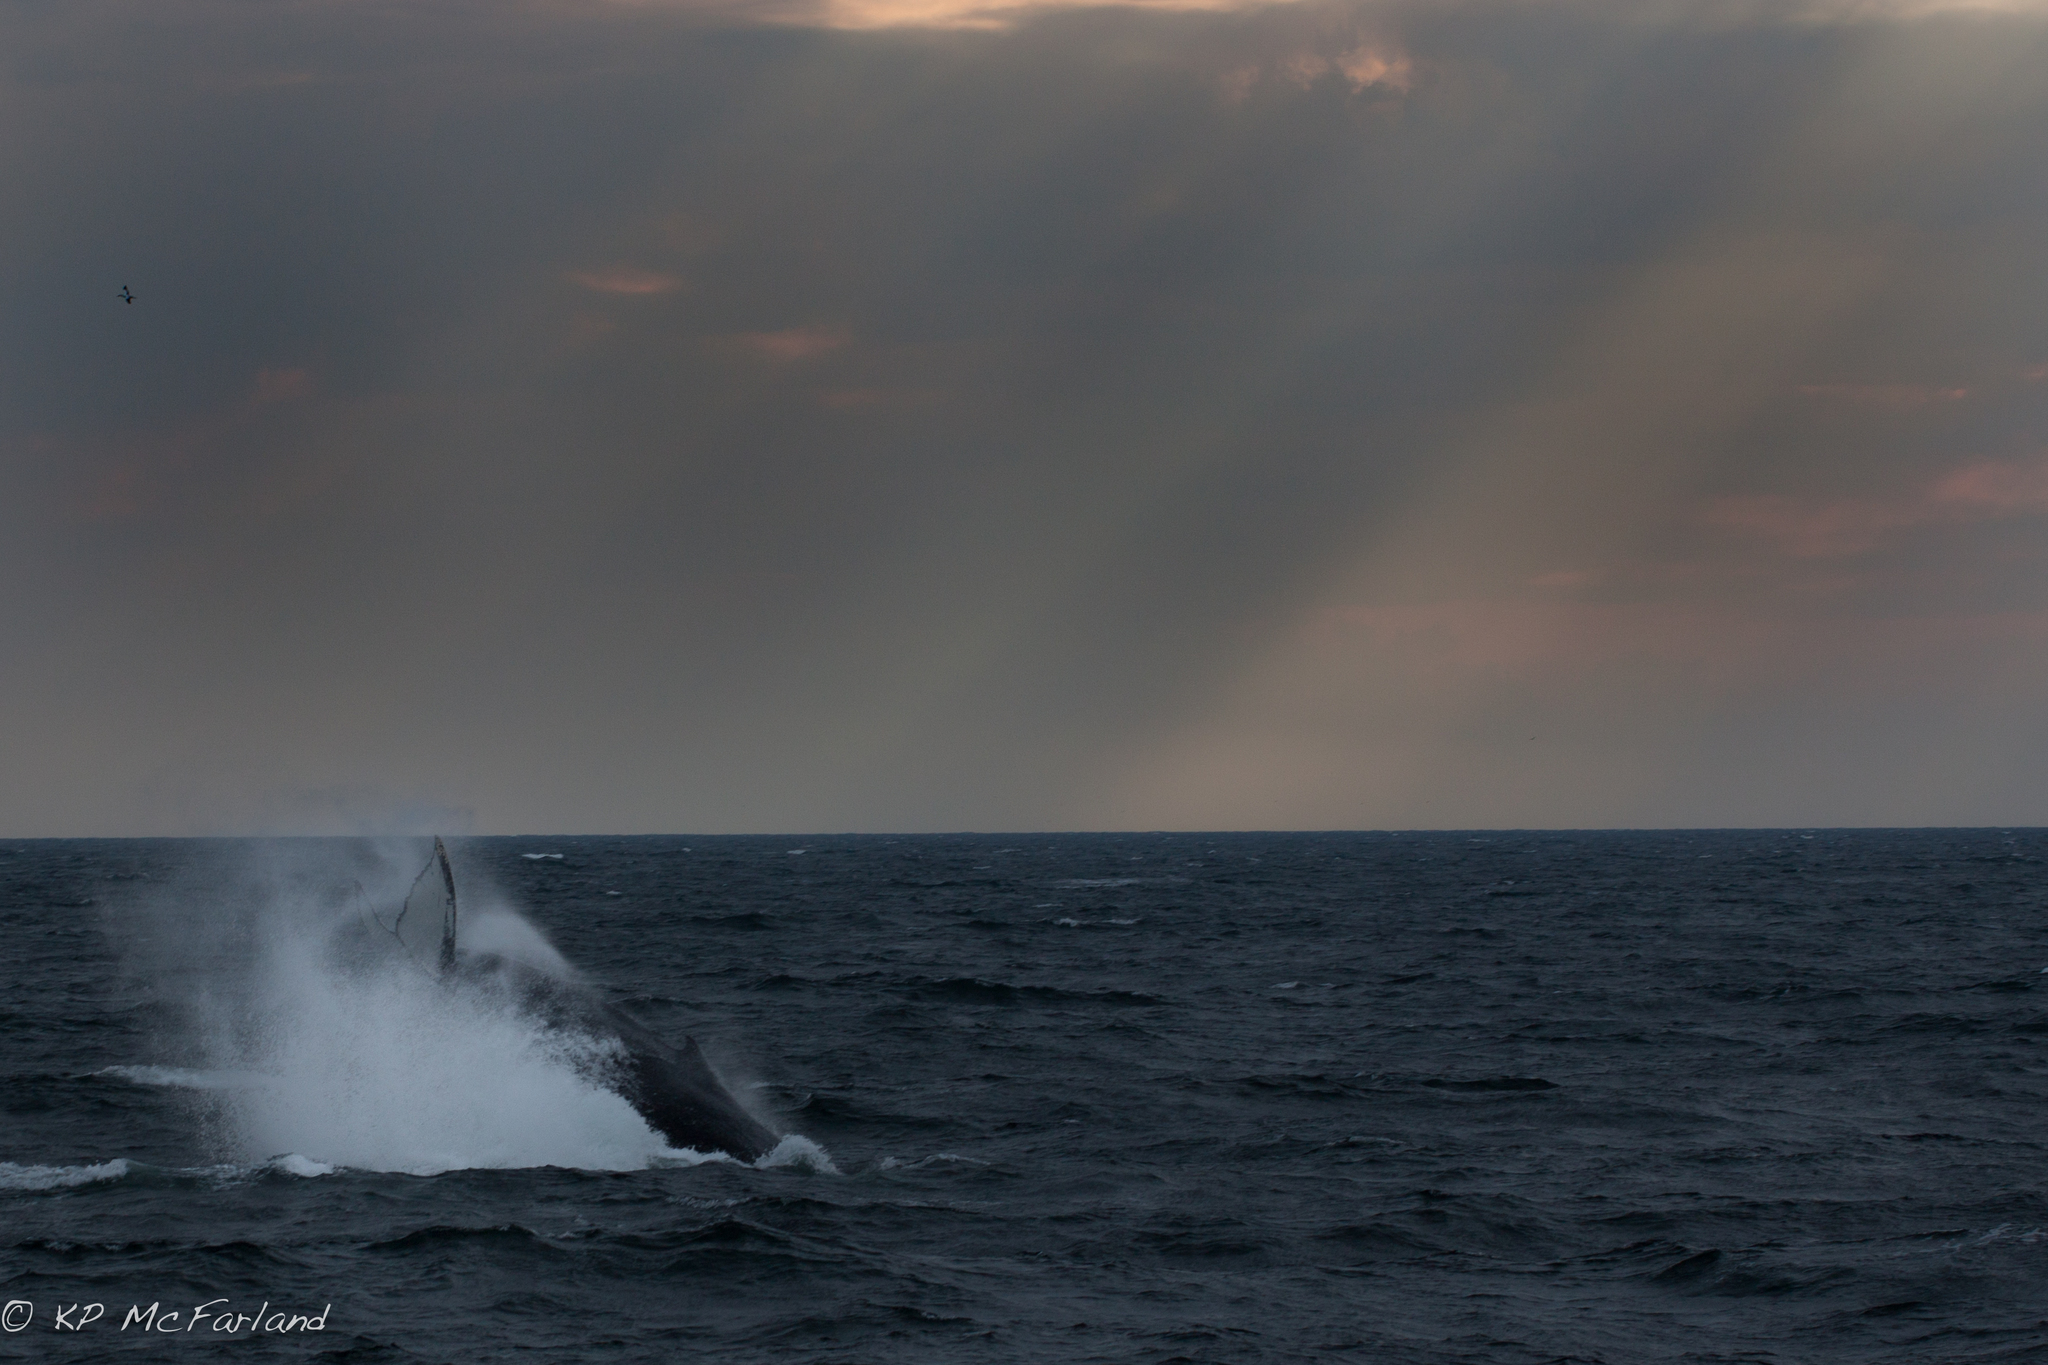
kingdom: Animalia
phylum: Chordata
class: Mammalia
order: Cetacea
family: Balaenopteridae
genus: Megaptera
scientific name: Megaptera novaeangliae
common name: Humpback whale
